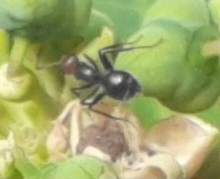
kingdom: Animalia
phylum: Arthropoda
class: Insecta
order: Hymenoptera
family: Formicidae
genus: Camponotus
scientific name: Camponotus lindigi
